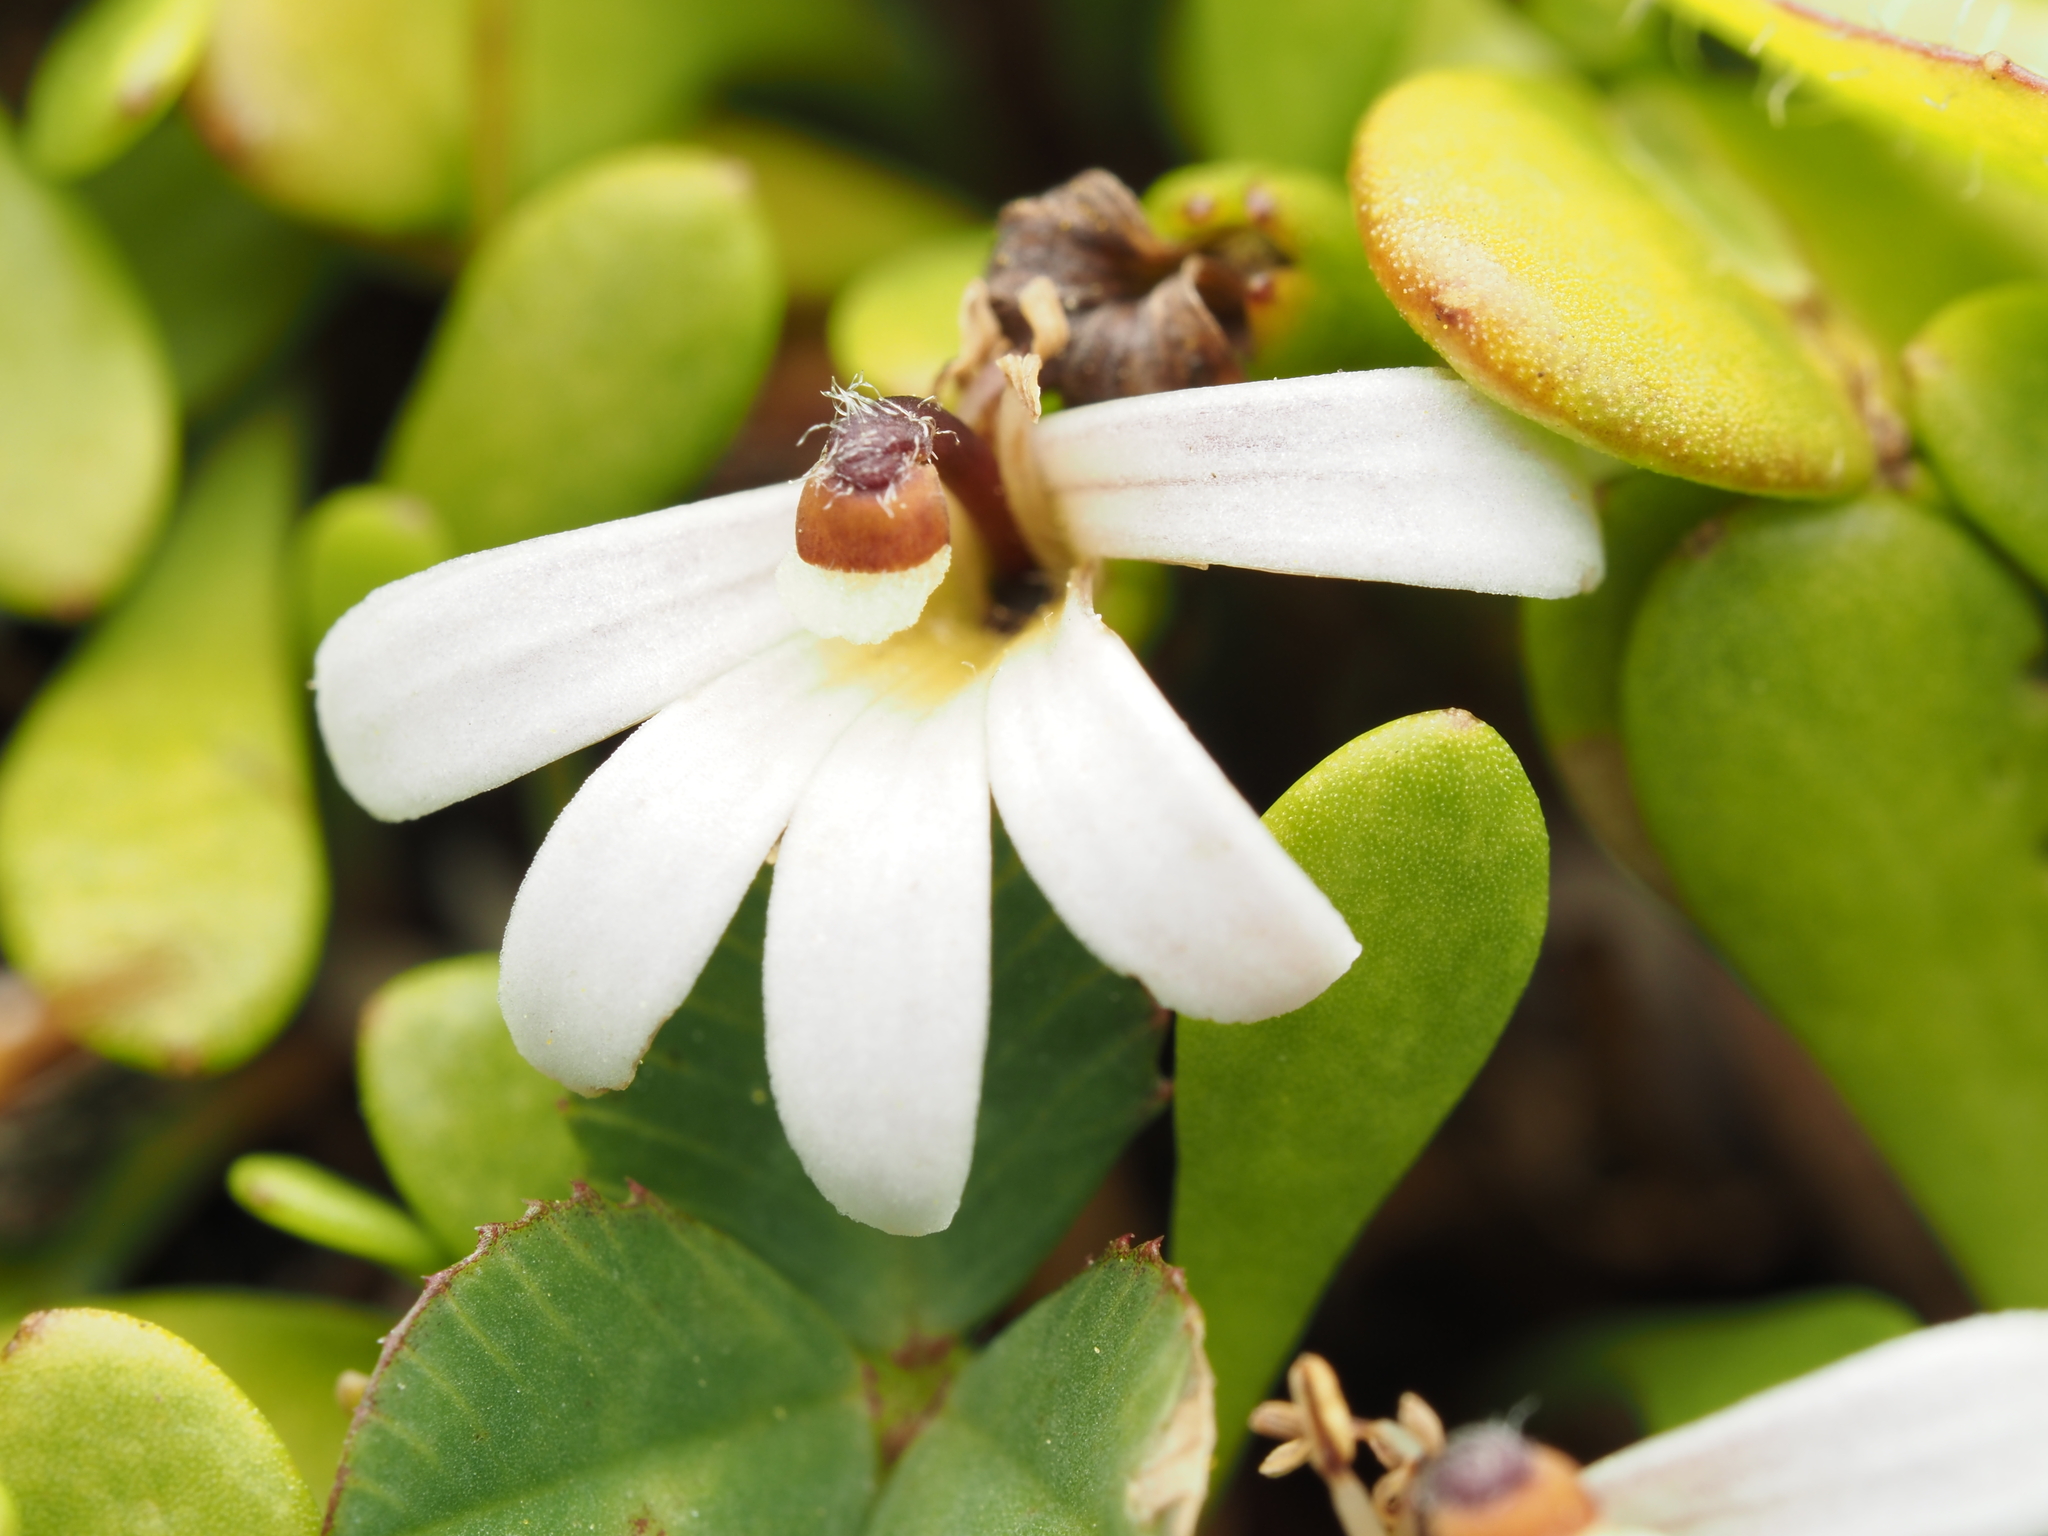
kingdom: Plantae
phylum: Tracheophyta
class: Magnoliopsida
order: Asterales
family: Goodeniaceae
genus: Goodenia
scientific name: Goodenia radicans
